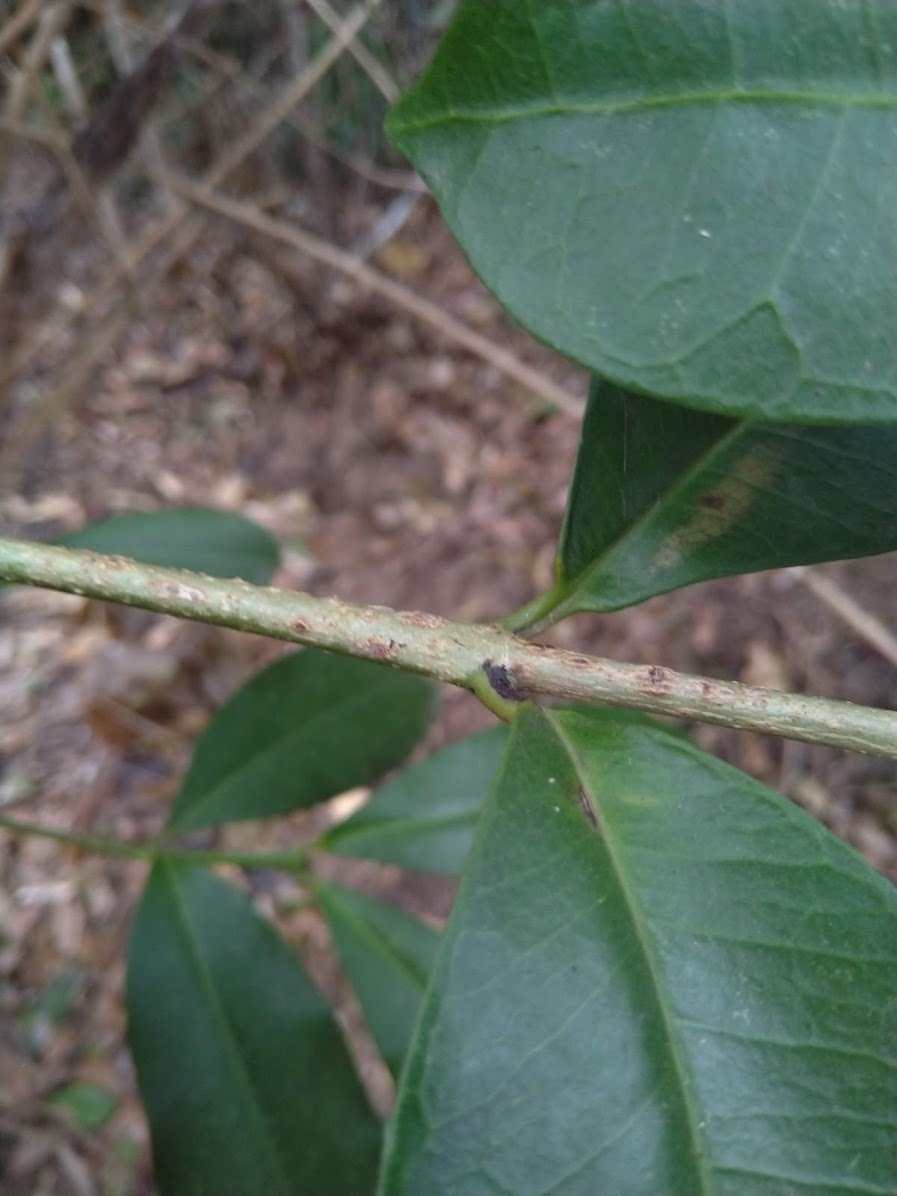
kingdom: Plantae
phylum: Tracheophyta
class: Magnoliopsida
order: Malpighiales
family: Euphorbiaceae
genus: Baloghia
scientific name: Baloghia inophylla
